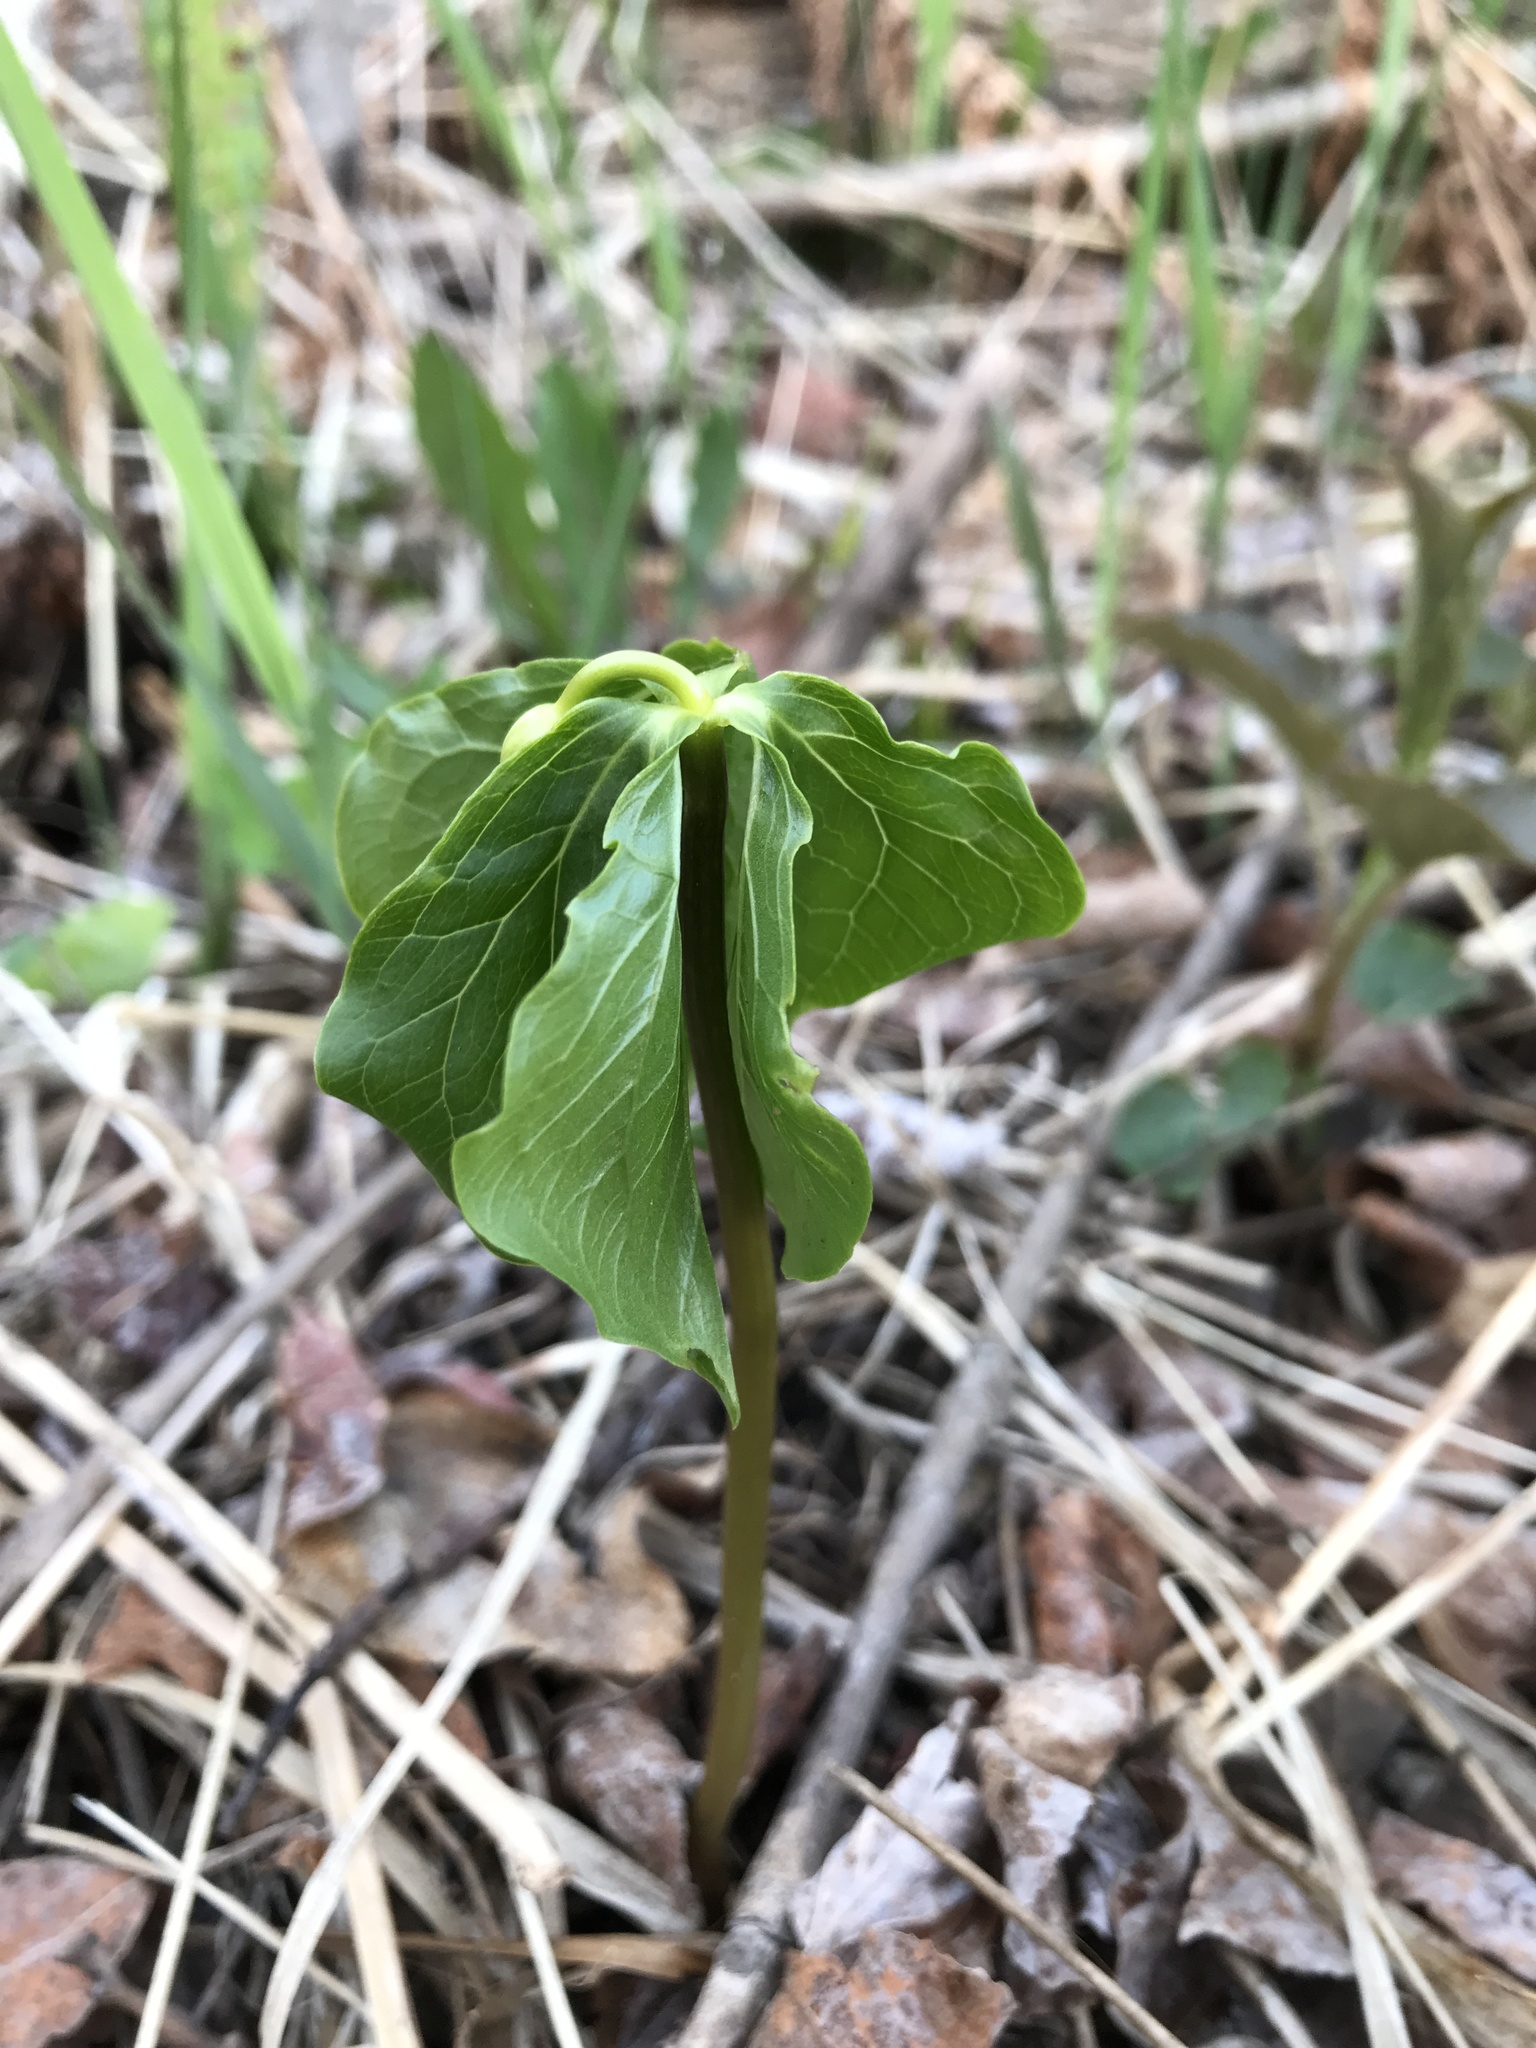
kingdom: Plantae
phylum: Tracheophyta
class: Liliopsida
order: Liliales
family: Melanthiaceae
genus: Trillium
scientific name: Trillium cernuum
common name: Nodding trillium
